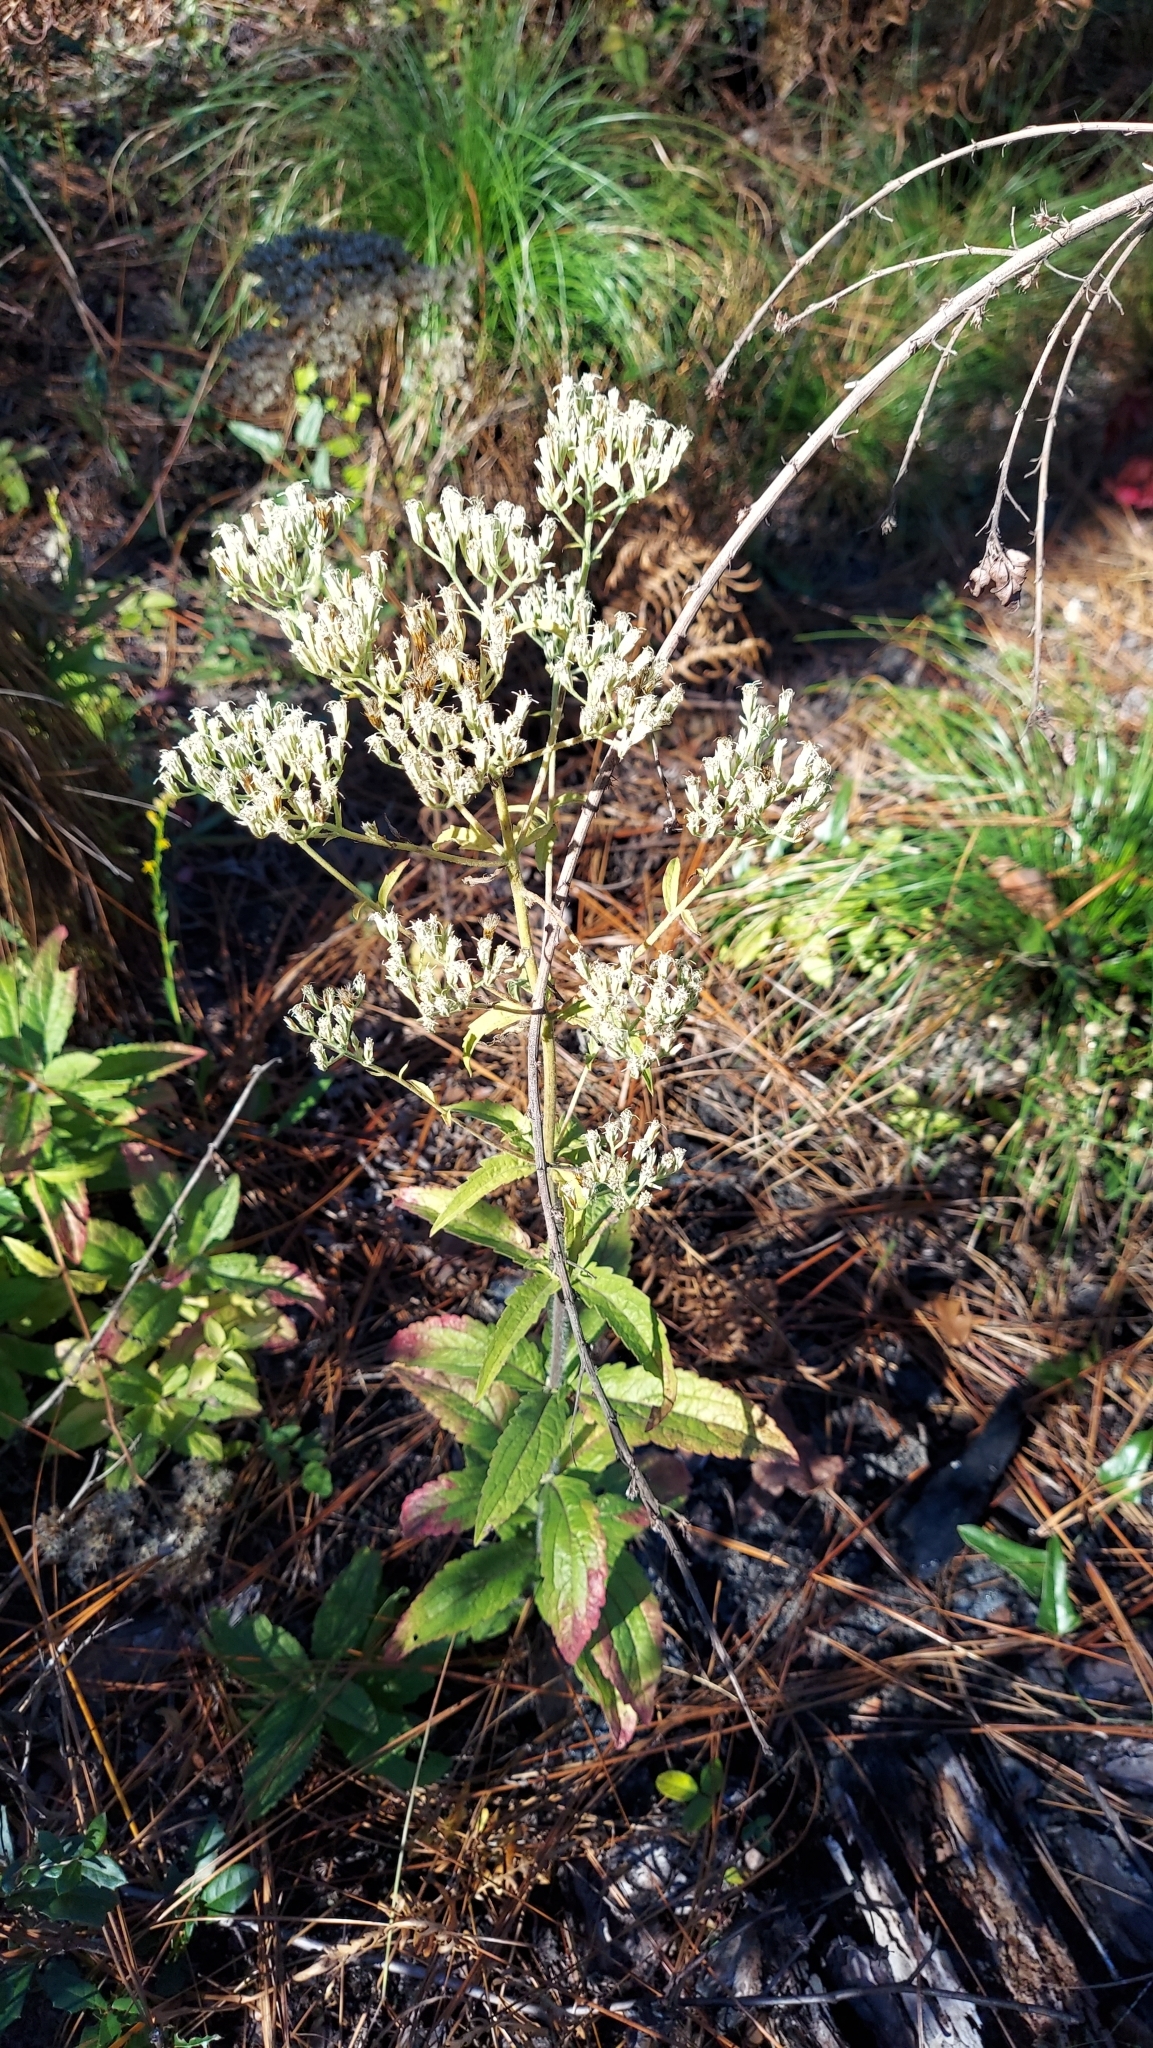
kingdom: Plantae
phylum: Tracheophyta
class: Magnoliopsida
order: Asterales
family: Asteraceae
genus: Eupatorium
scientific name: Eupatorium album
